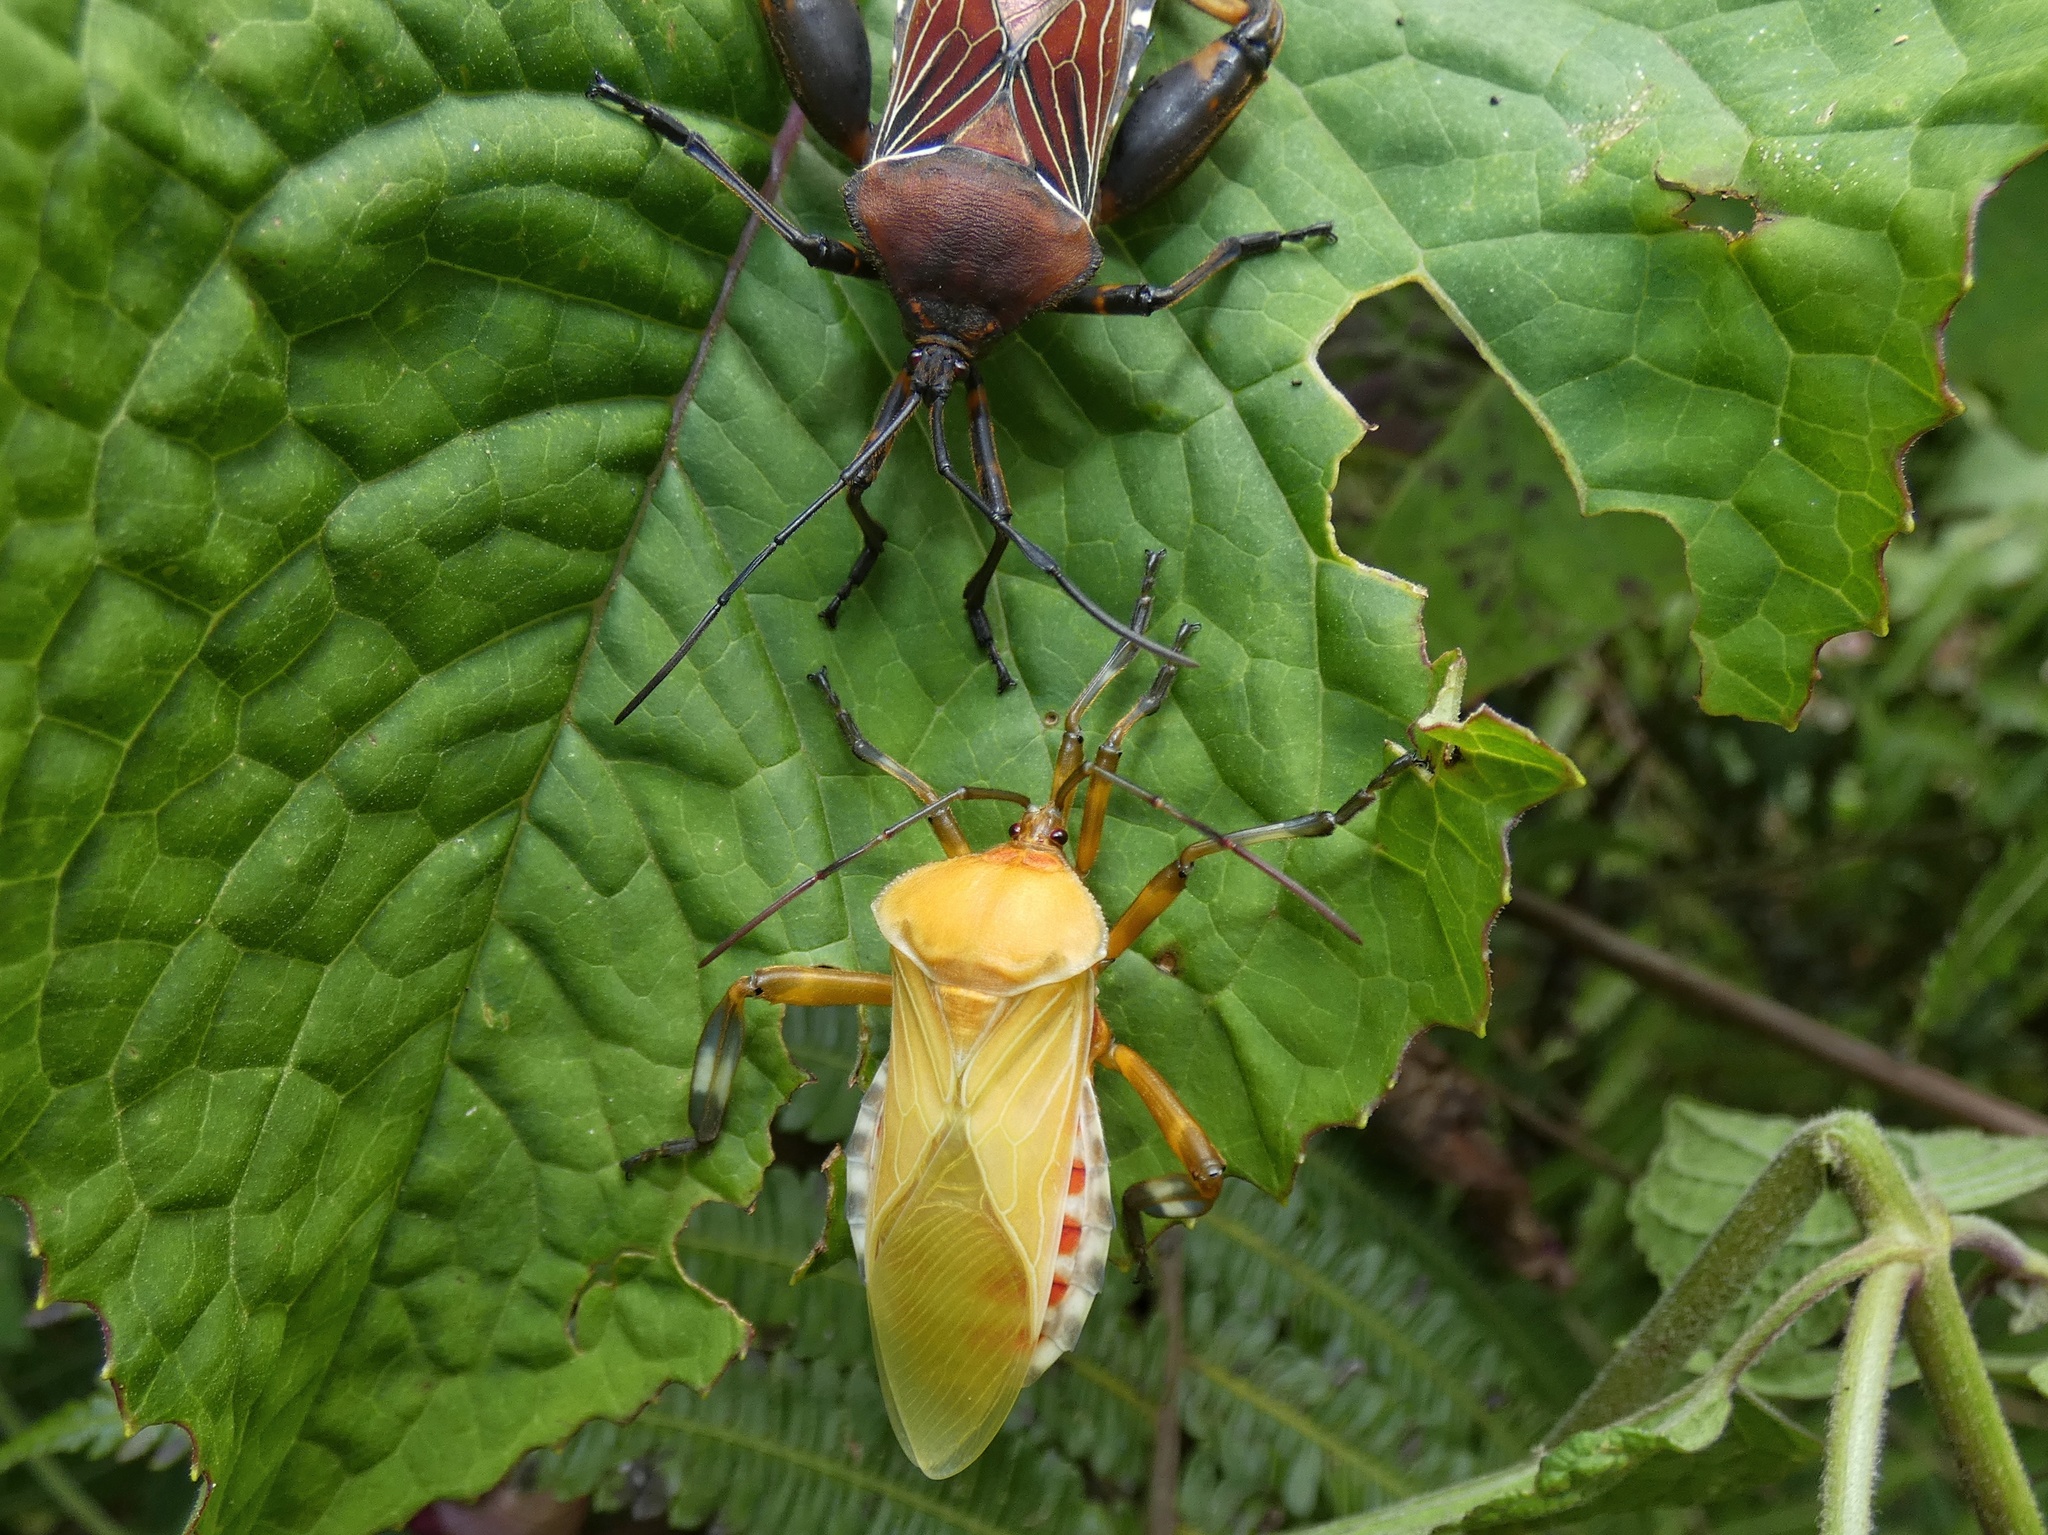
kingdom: Animalia
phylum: Arthropoda
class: Insecta
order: Hemiptera
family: Coreidae
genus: Thasus
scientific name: Thasus luteolus
